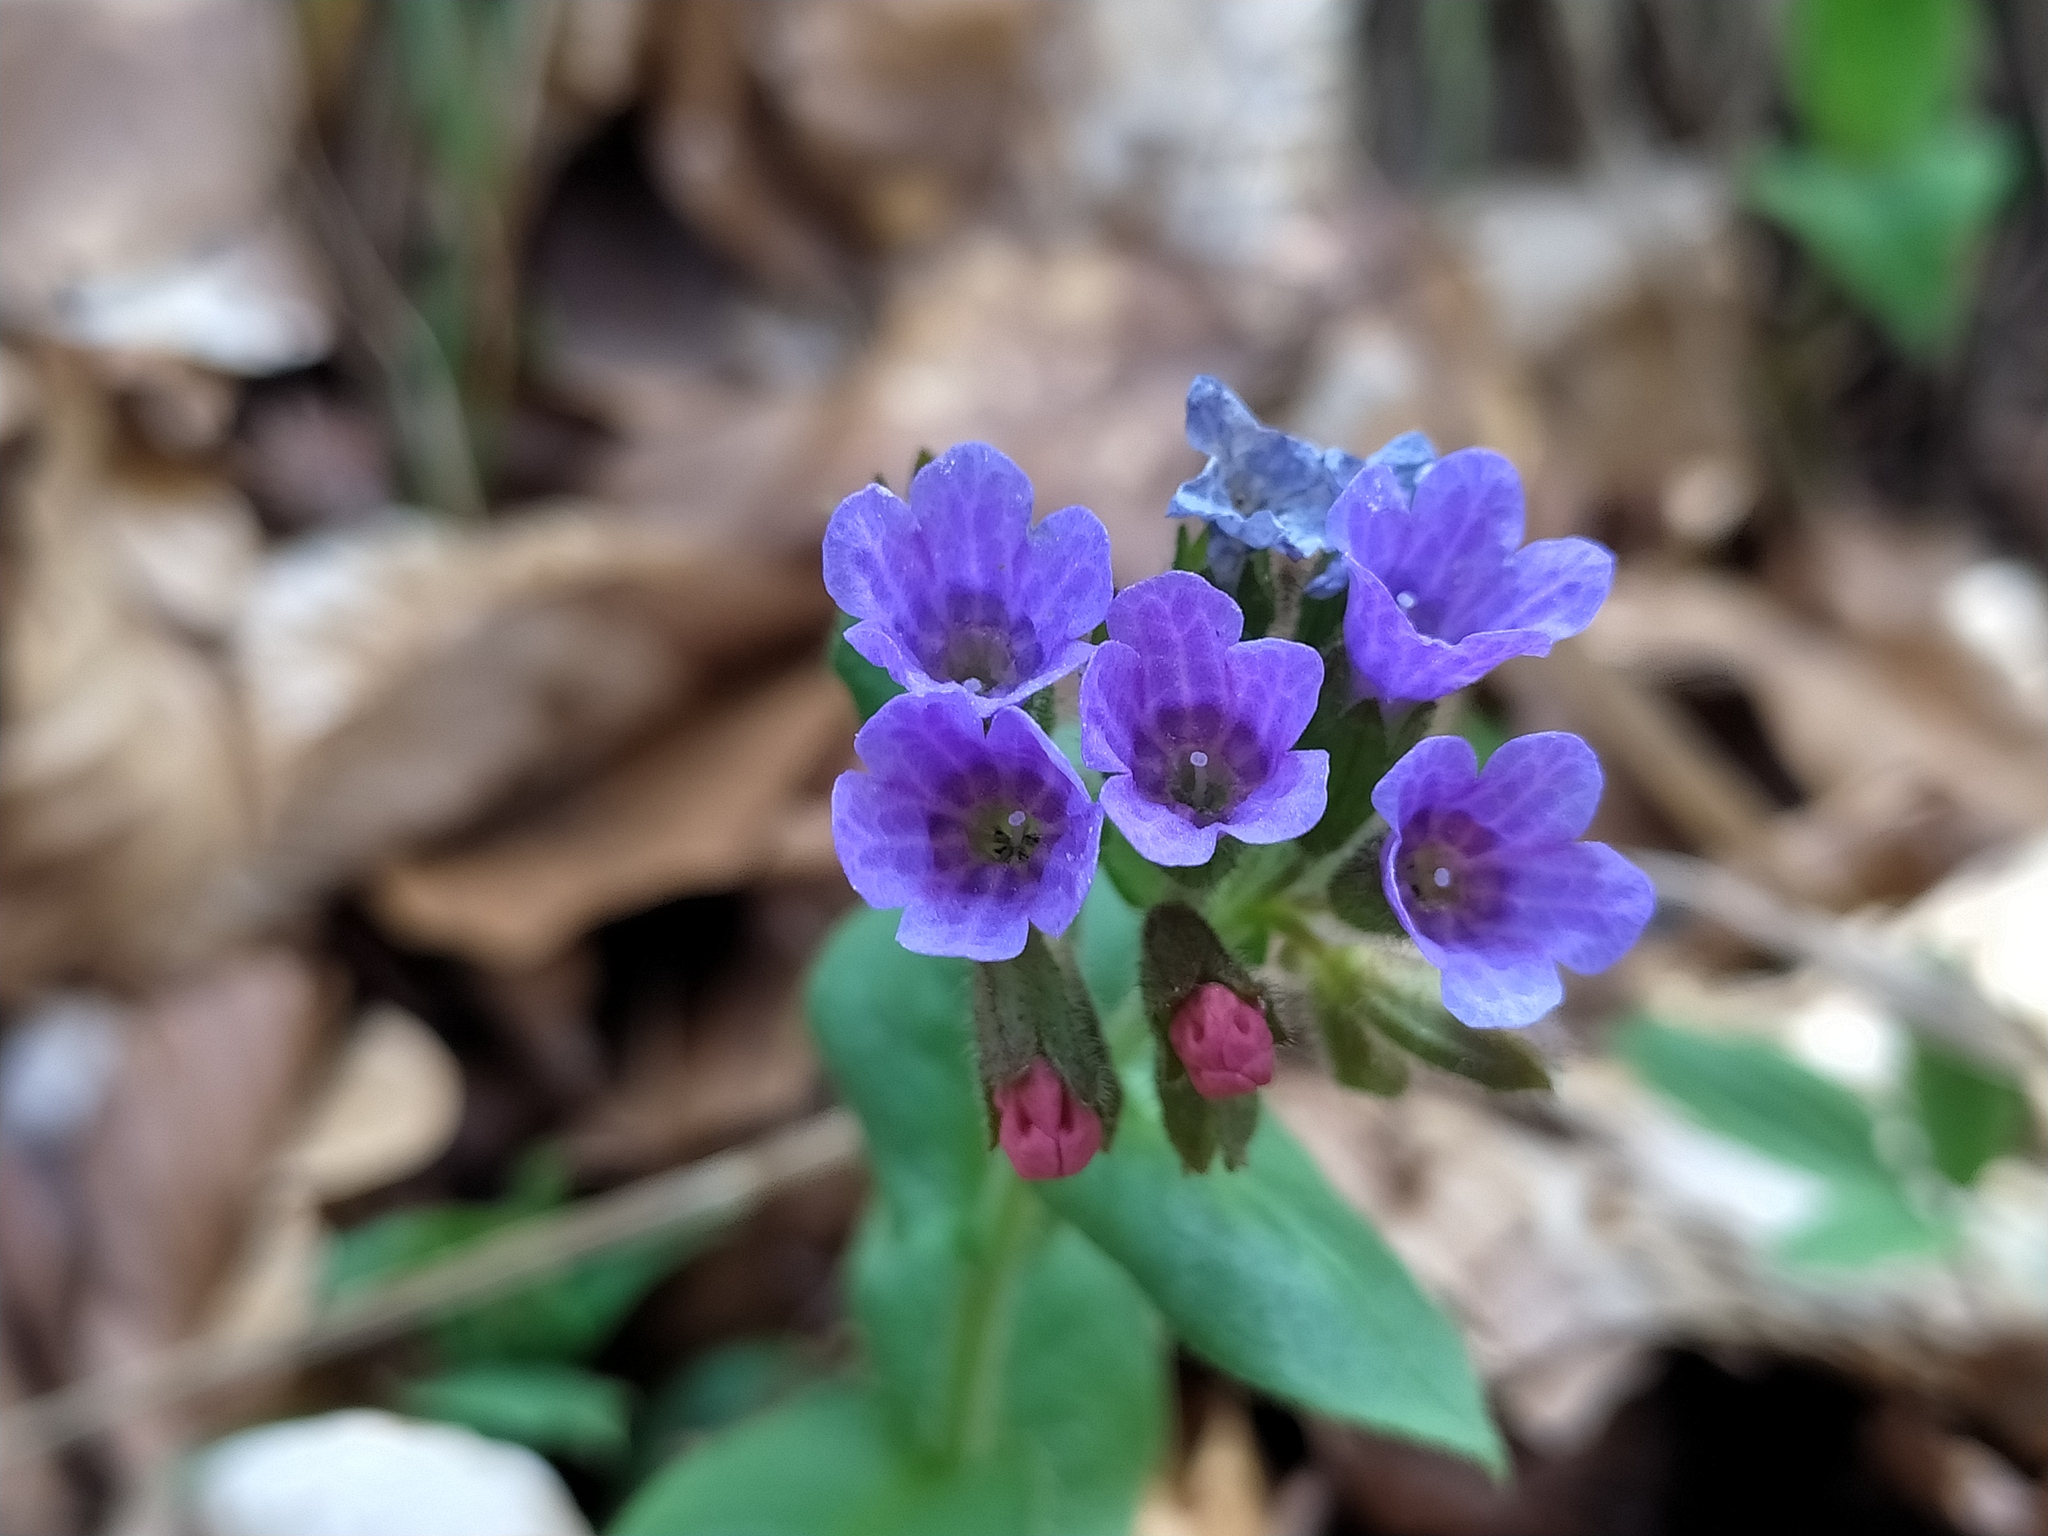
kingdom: Plantae
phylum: Tracheophyta
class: Magnoliopsida
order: Boraginales
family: Boraginaceae
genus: Pulmonaria
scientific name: Pulmonaria obscura
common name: Suffolk lungwort
